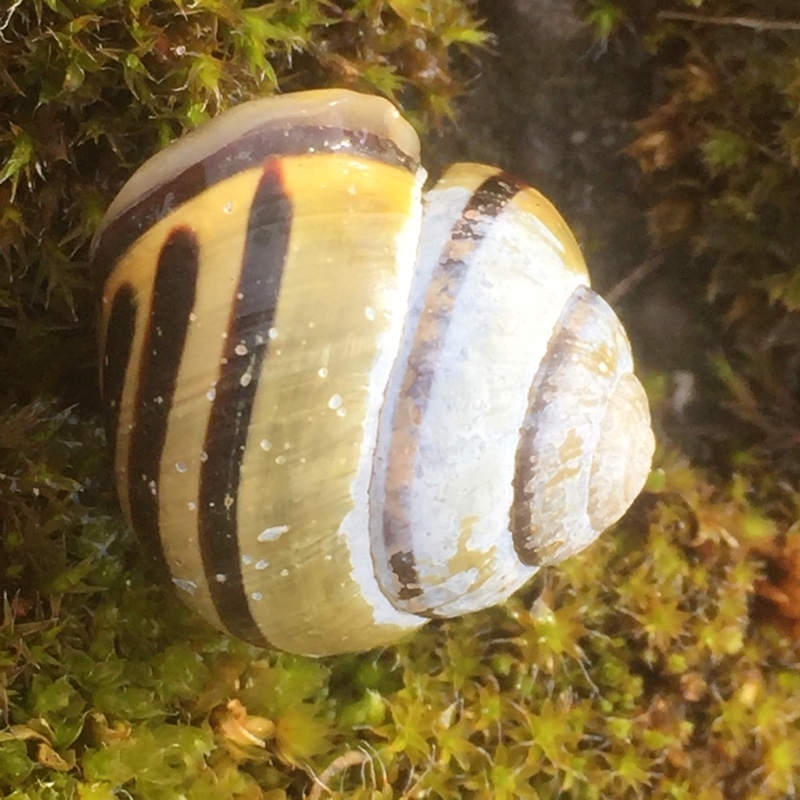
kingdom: Animalia
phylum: Mollusca
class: Gastropoda
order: Stylommatophora
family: Helicidae
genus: Cepaea
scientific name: Cepaea nemoralis
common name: Grovesnail
